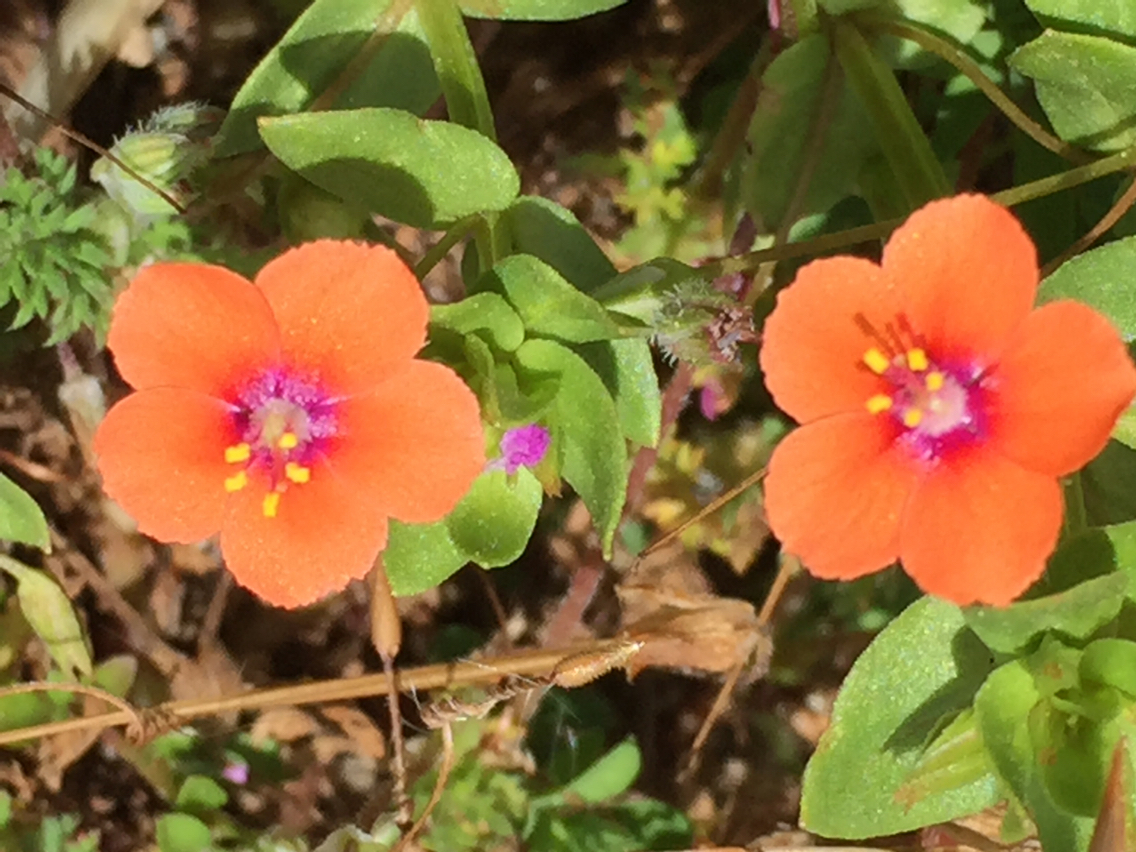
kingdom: Plantae
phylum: Tracheophyta
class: Magnoliopsida
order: Ericales
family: Primulaceae
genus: Lysimachia
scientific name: Lysimachia arvensis
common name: Scarlet pimpernel
